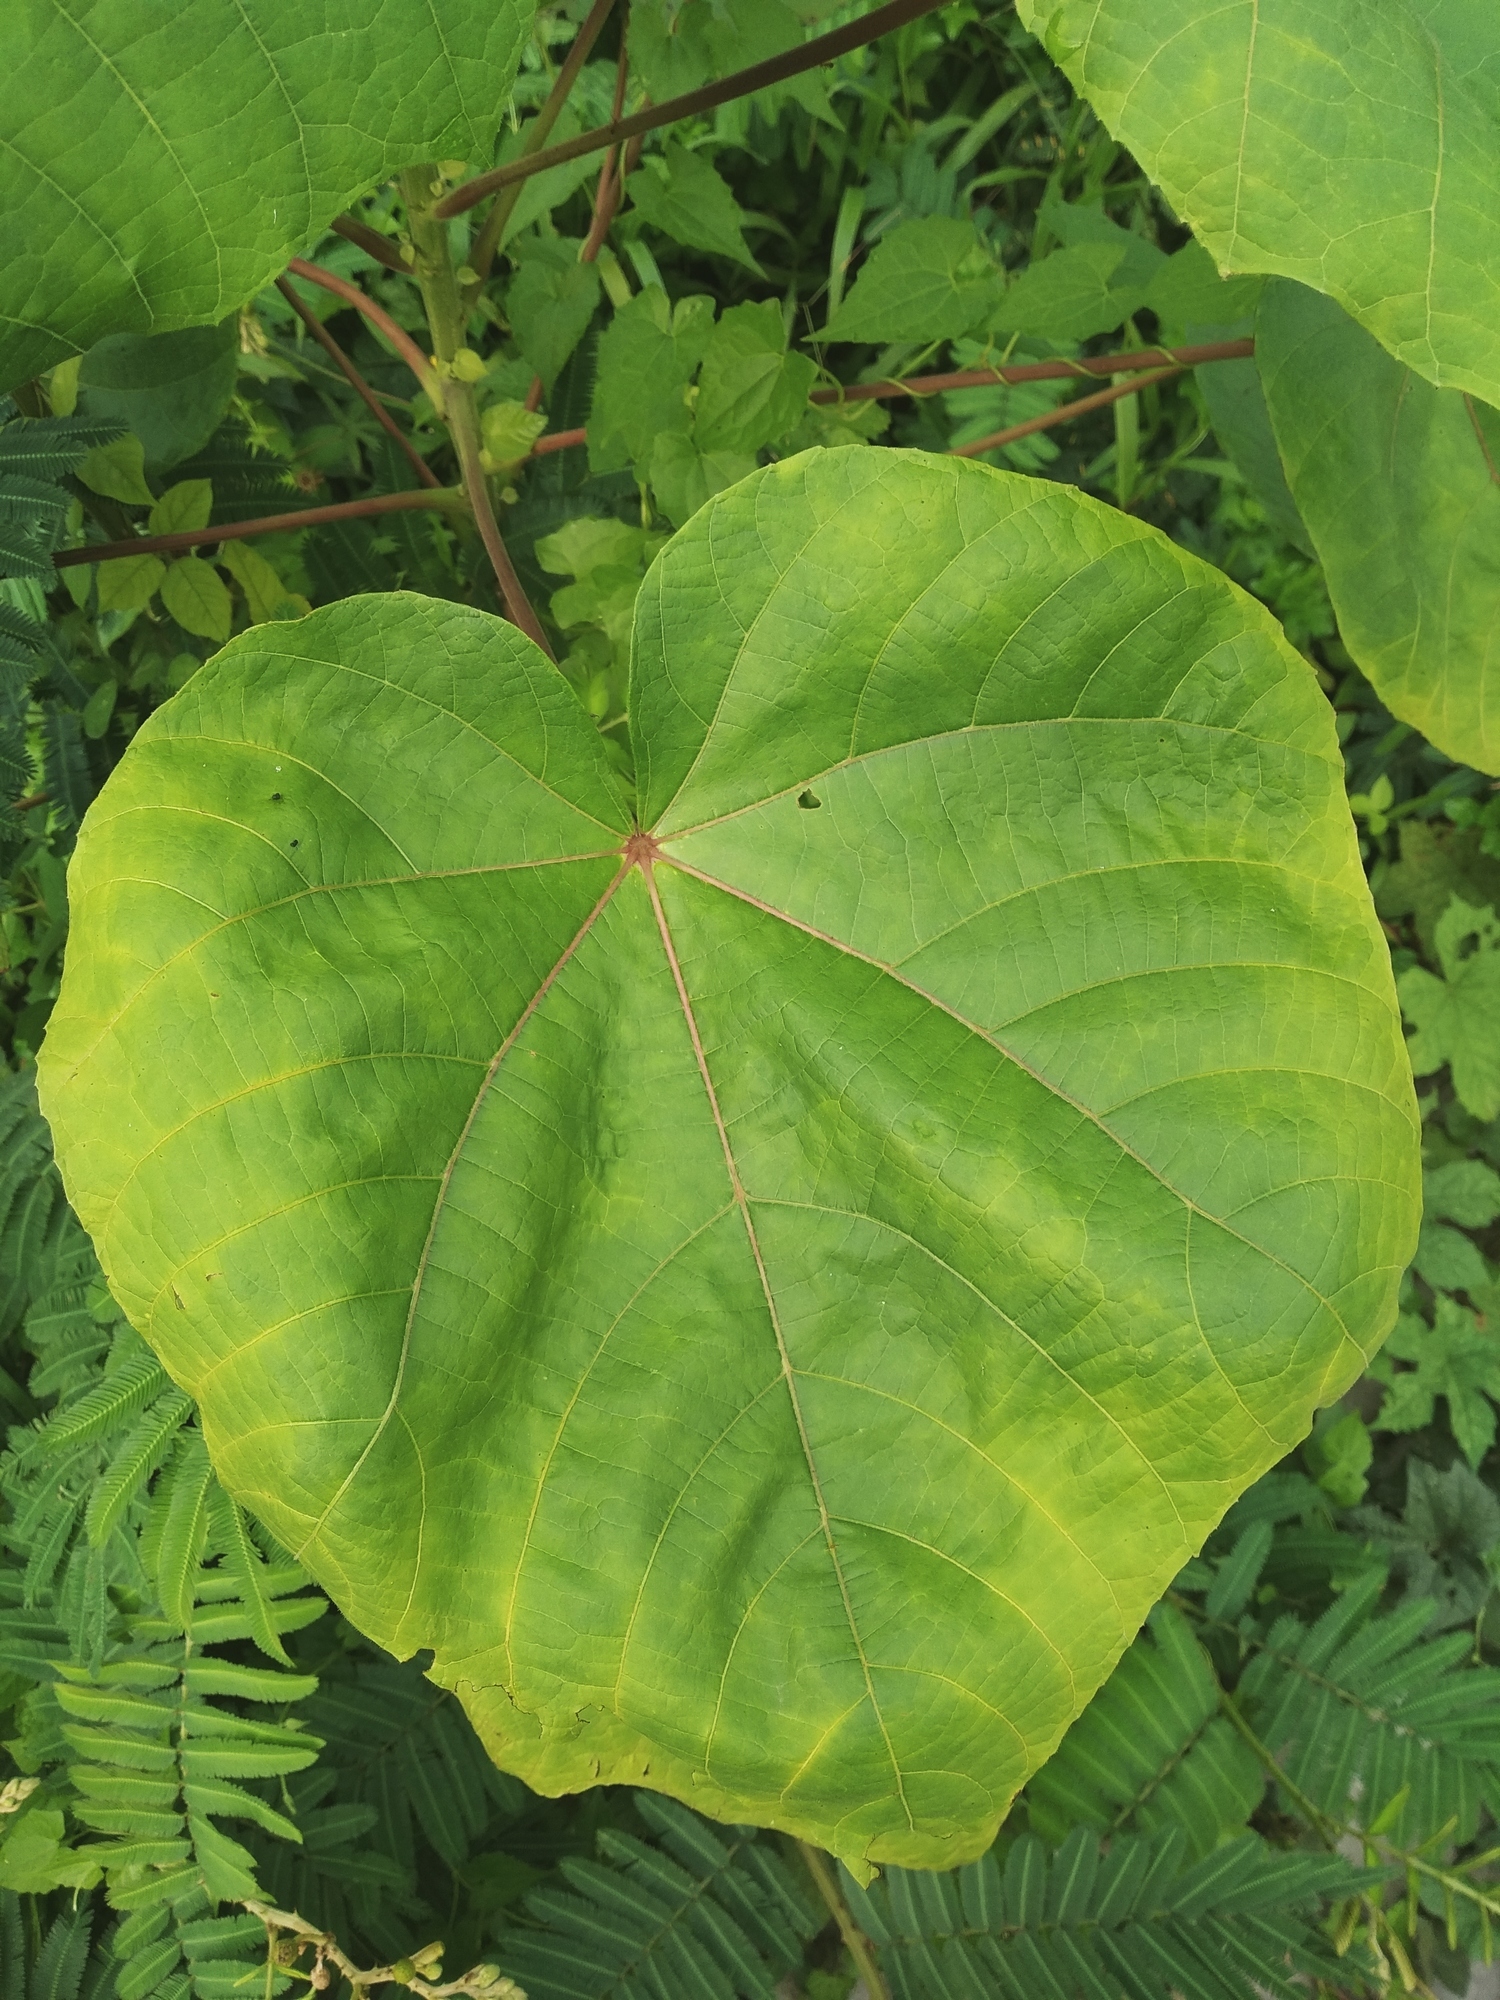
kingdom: Plantae
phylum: Tracheophyta
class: Magnoliopsida
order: Malvales
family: Malvaceae
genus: Ochroma
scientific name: Ochroma pyramidale
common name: Balsa
